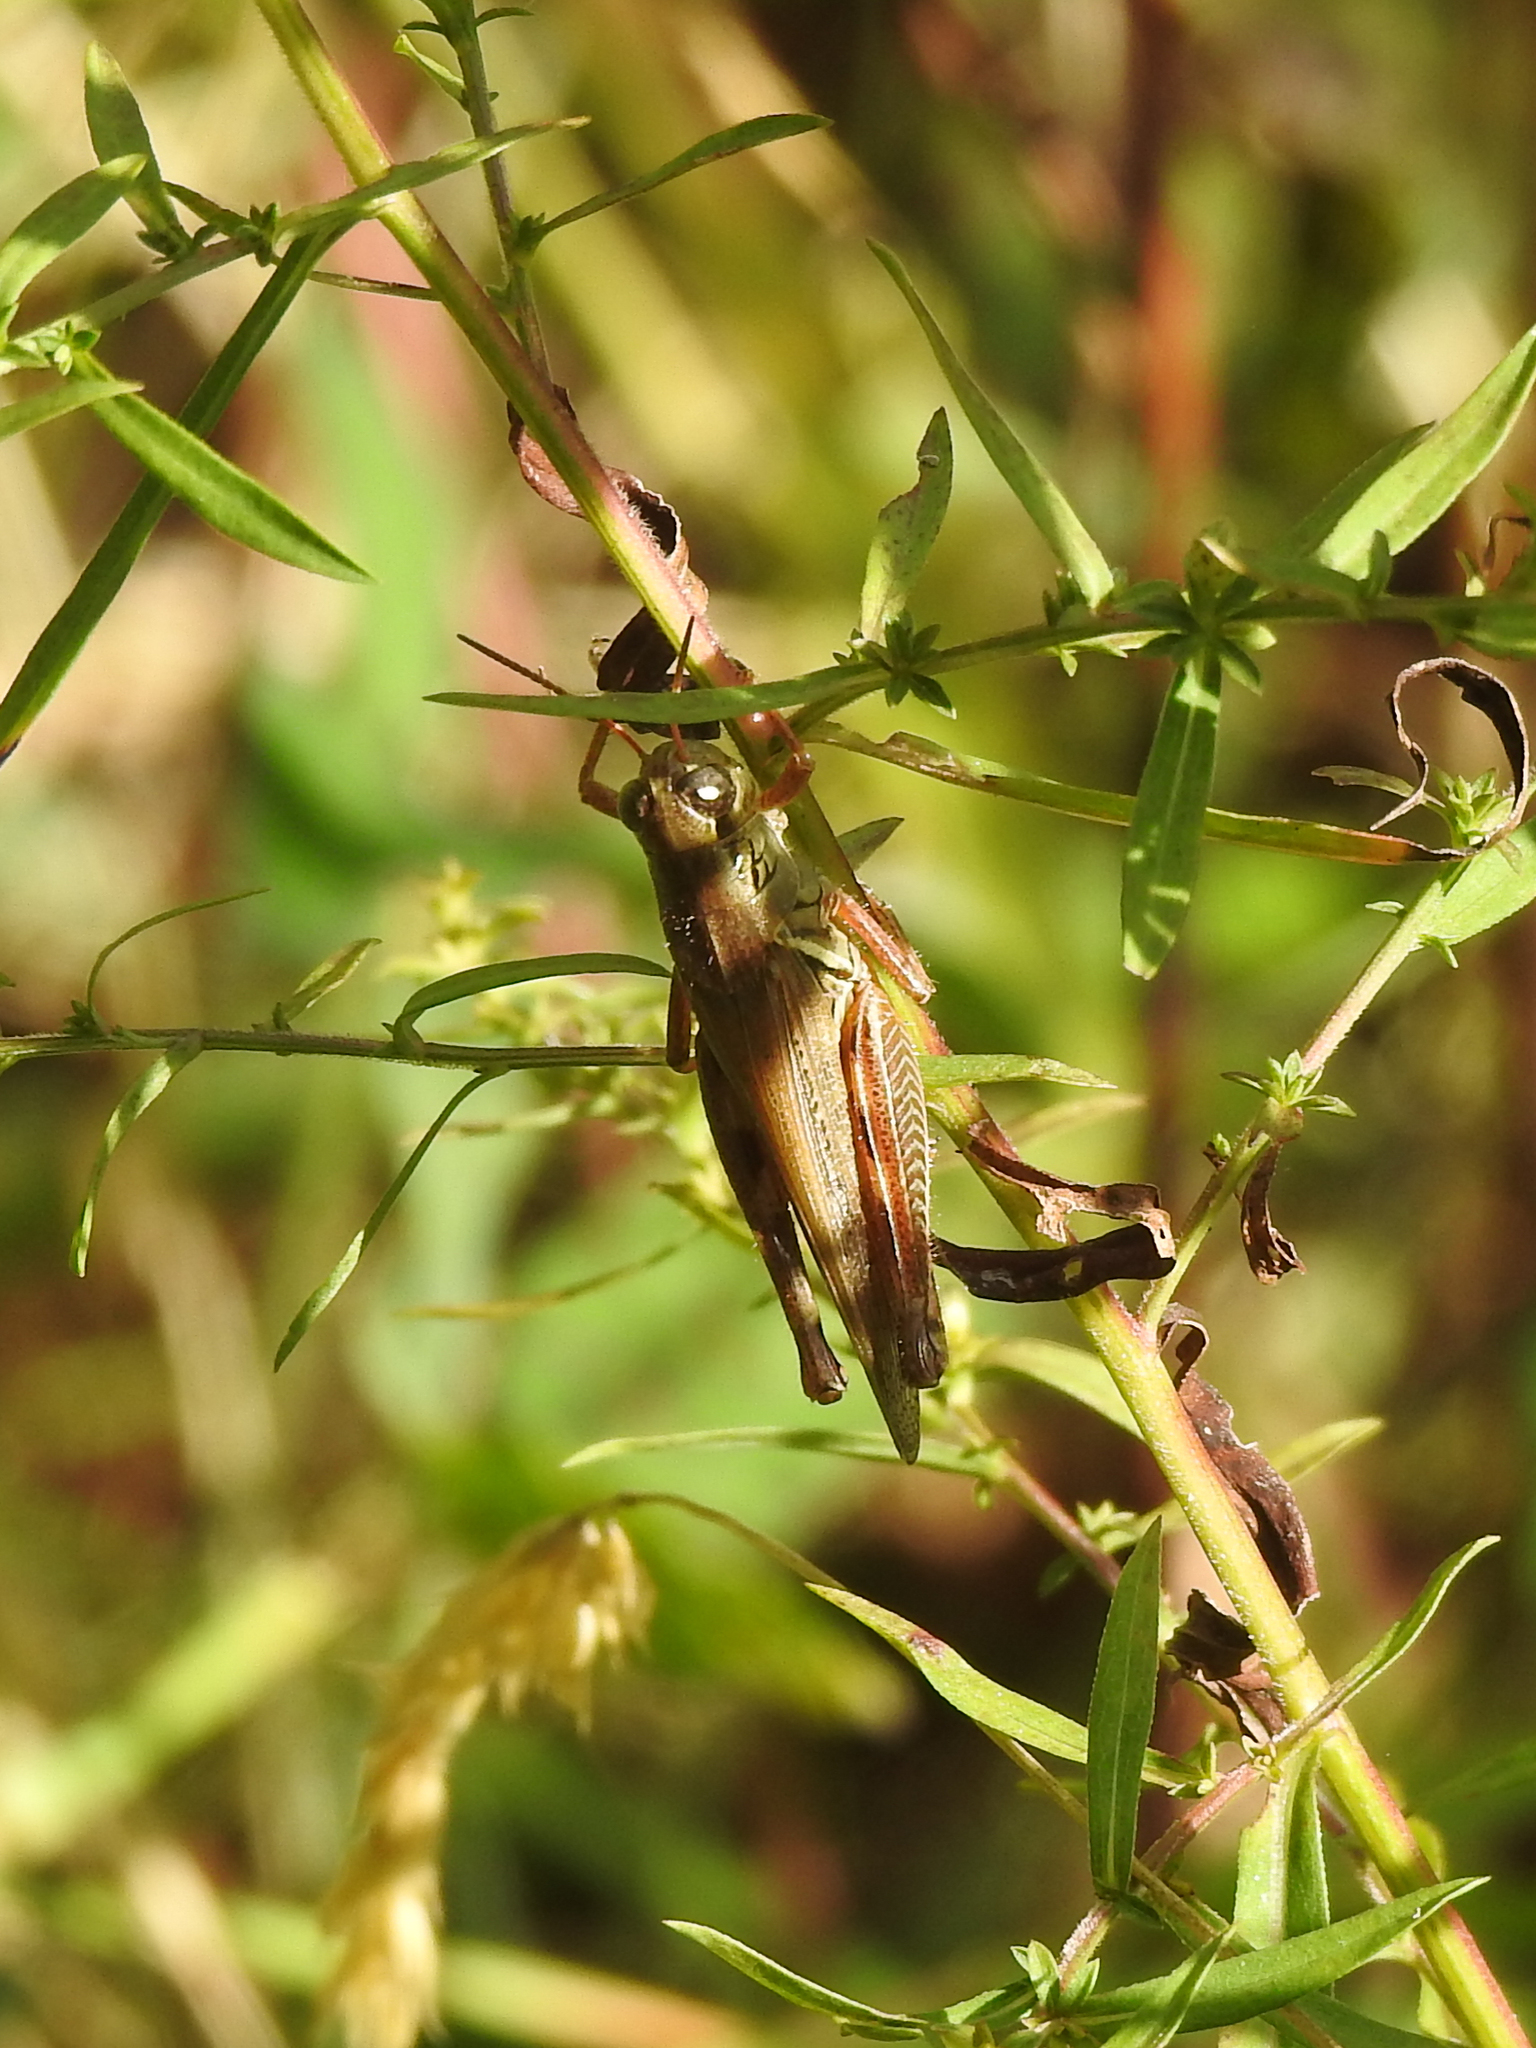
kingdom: Animalia
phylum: Arthropoda
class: Insecta
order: Orthoptera
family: Acrididae
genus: Melanoplus
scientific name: Melanoplus femurrubrum
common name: Red-legged grasshopper
